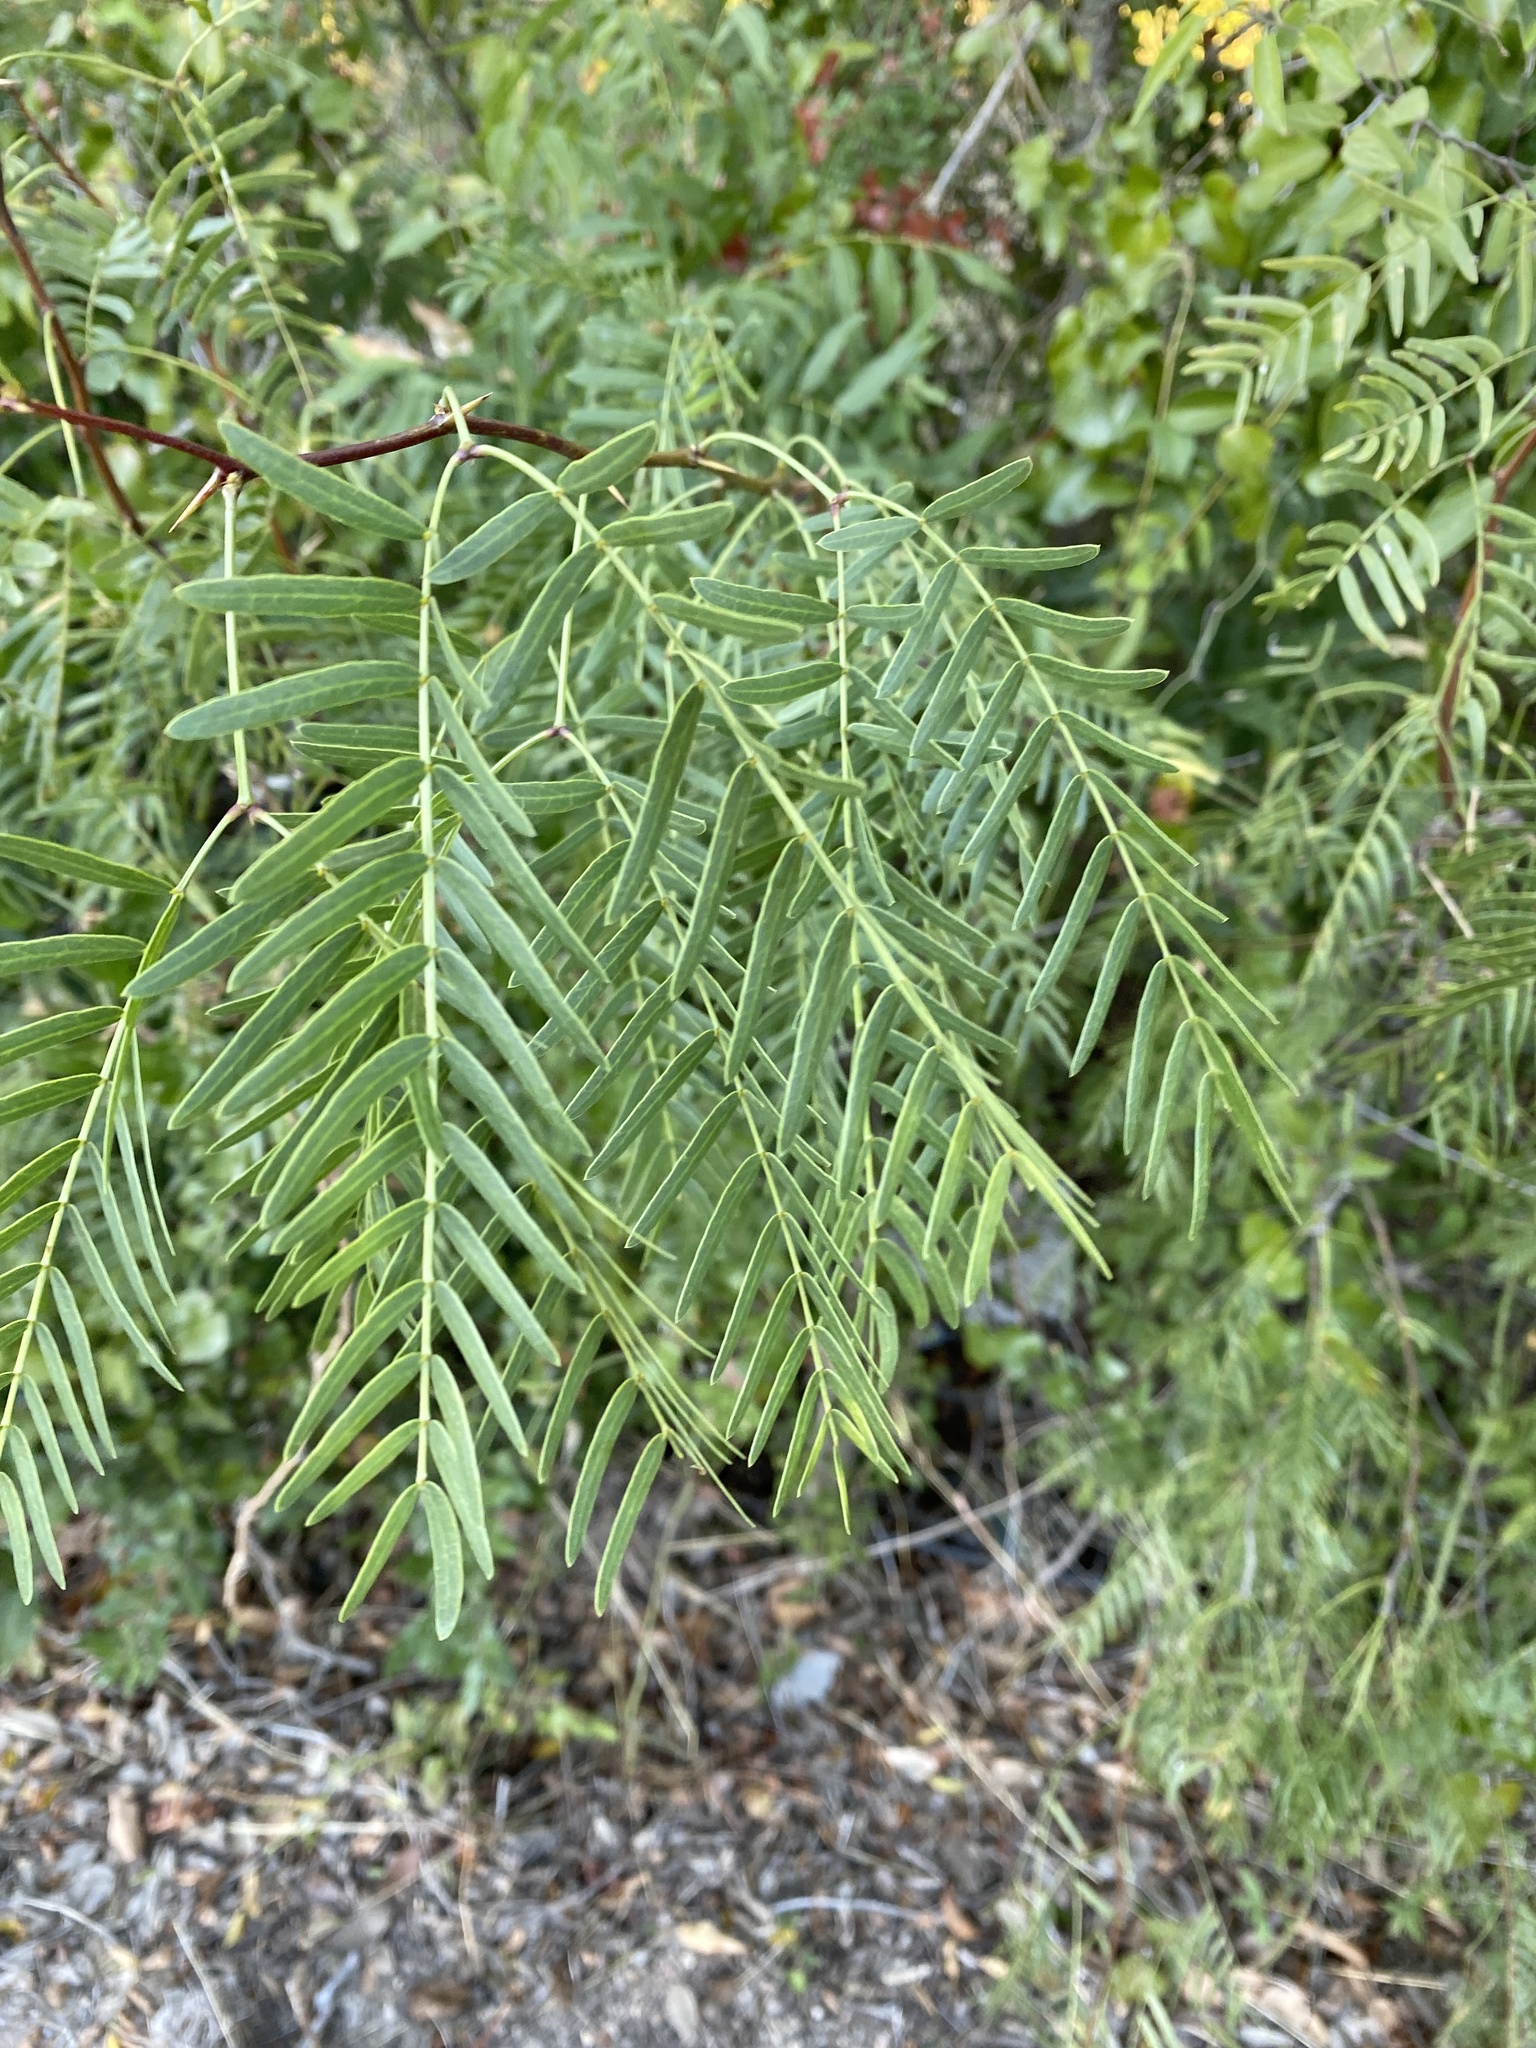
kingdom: Plantae
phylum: Tracheophyta
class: Magnoliopsida
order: Fabales
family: Fabaceae
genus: Prosopis
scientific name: Prosopis glandulosa
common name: Honey mesquite
